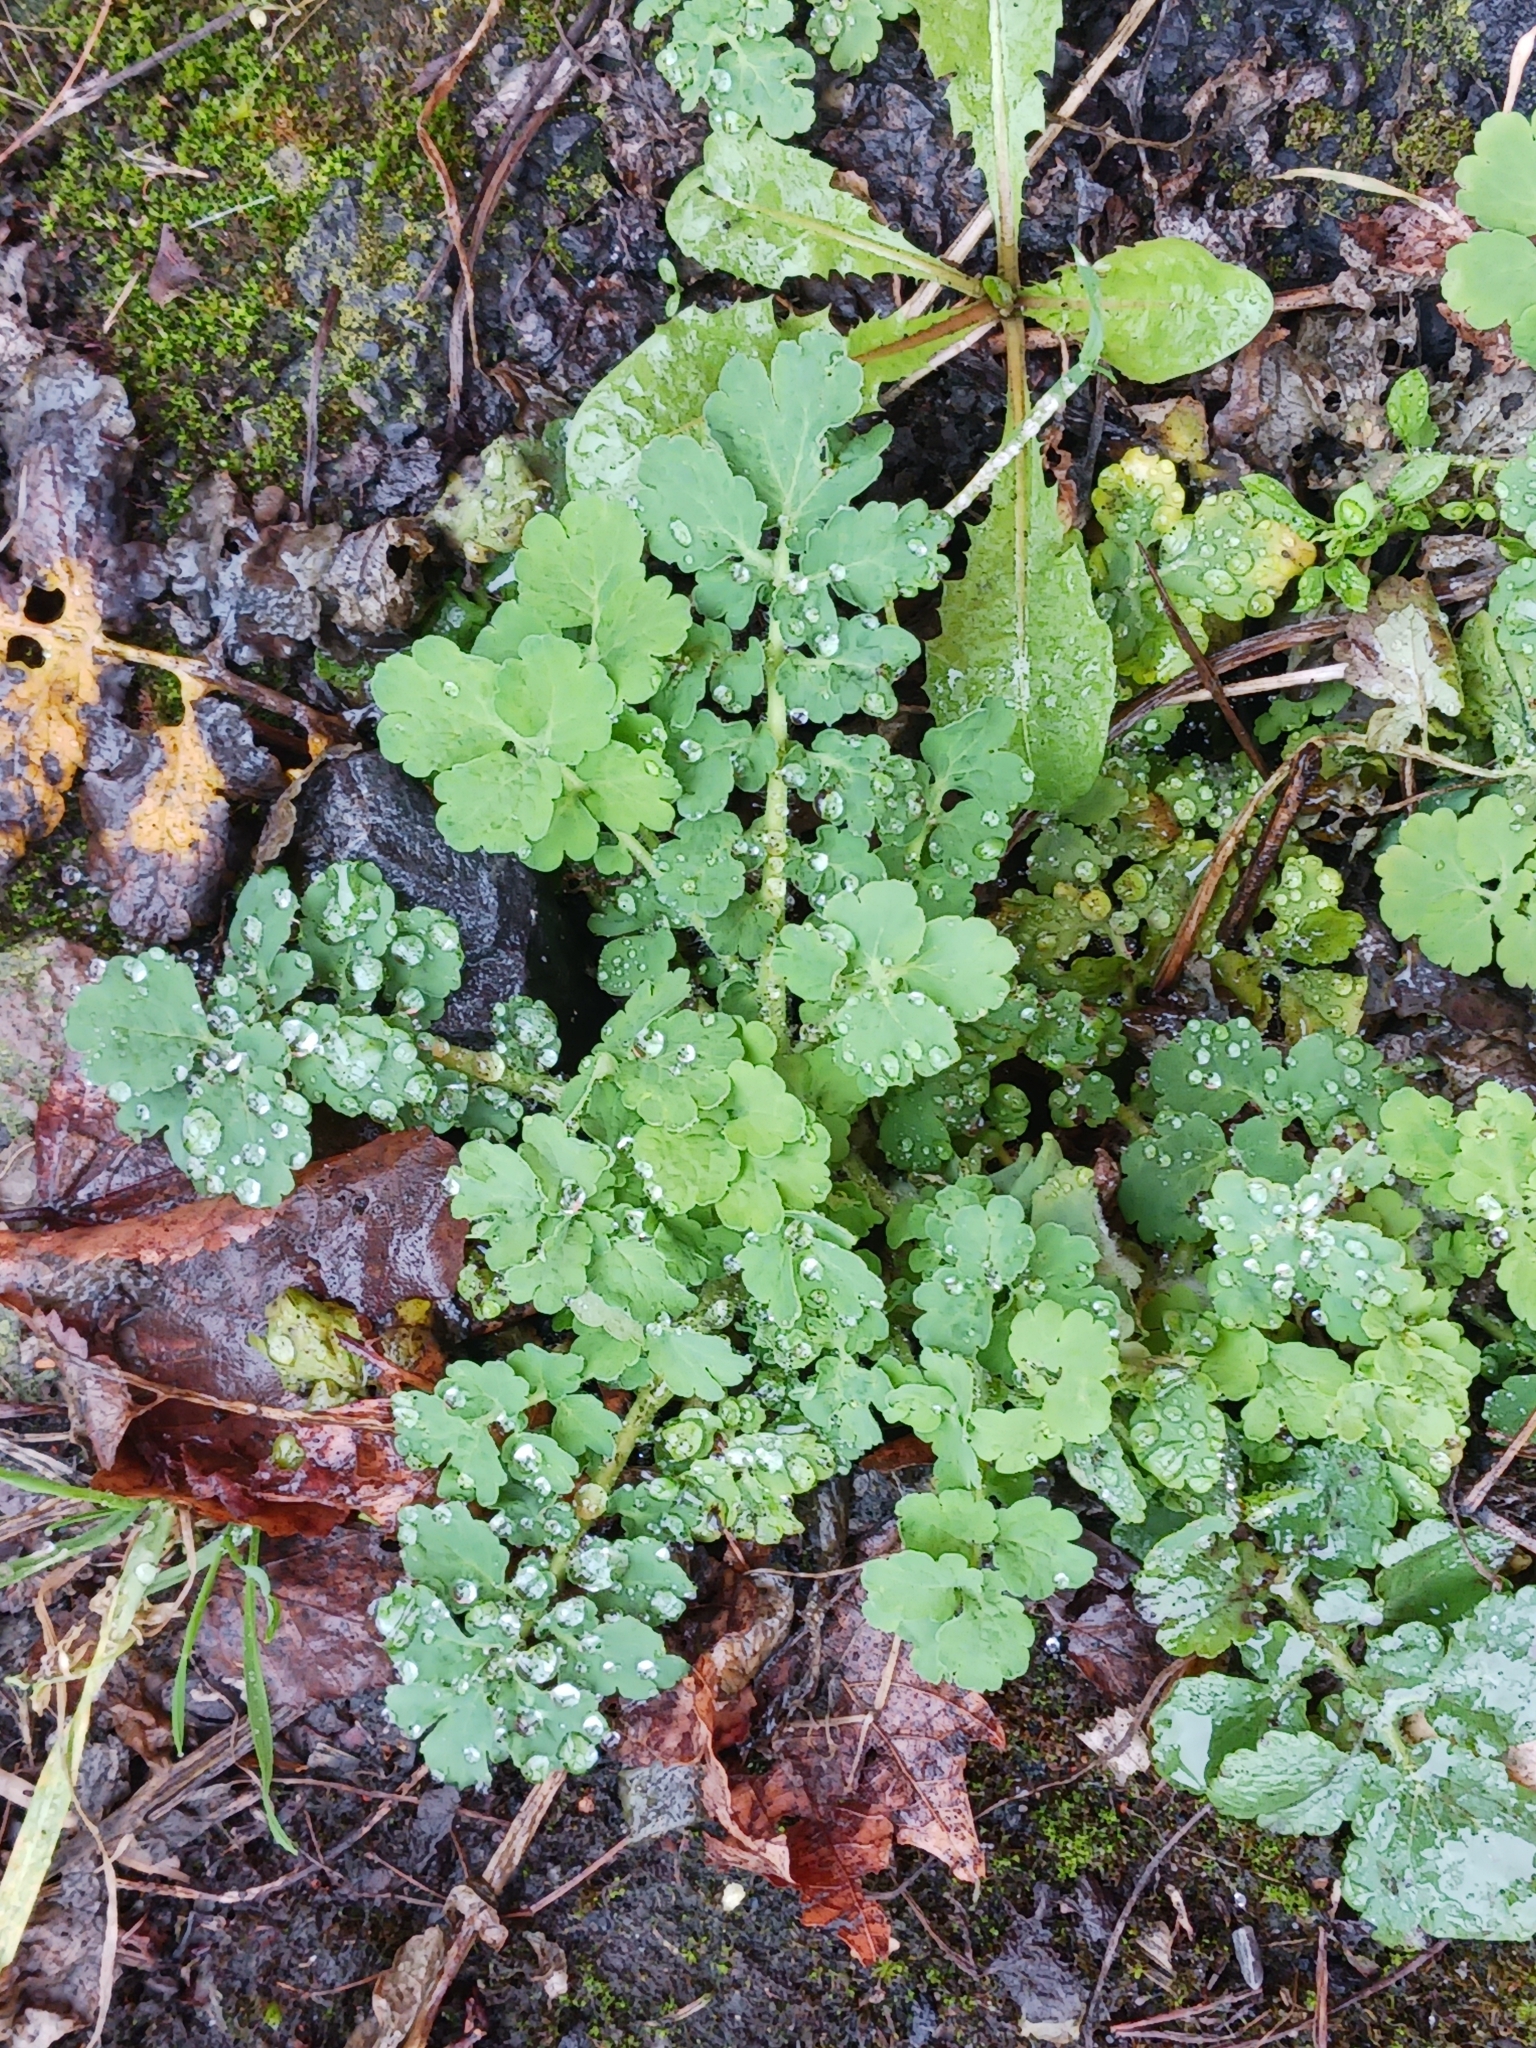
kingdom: Plantae
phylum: Tracheophyta
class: Magnoliopsida
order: Ranunculales
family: Papaveraceae
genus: Chelidonium
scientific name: Chelidonium majus
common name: Greater celandine
